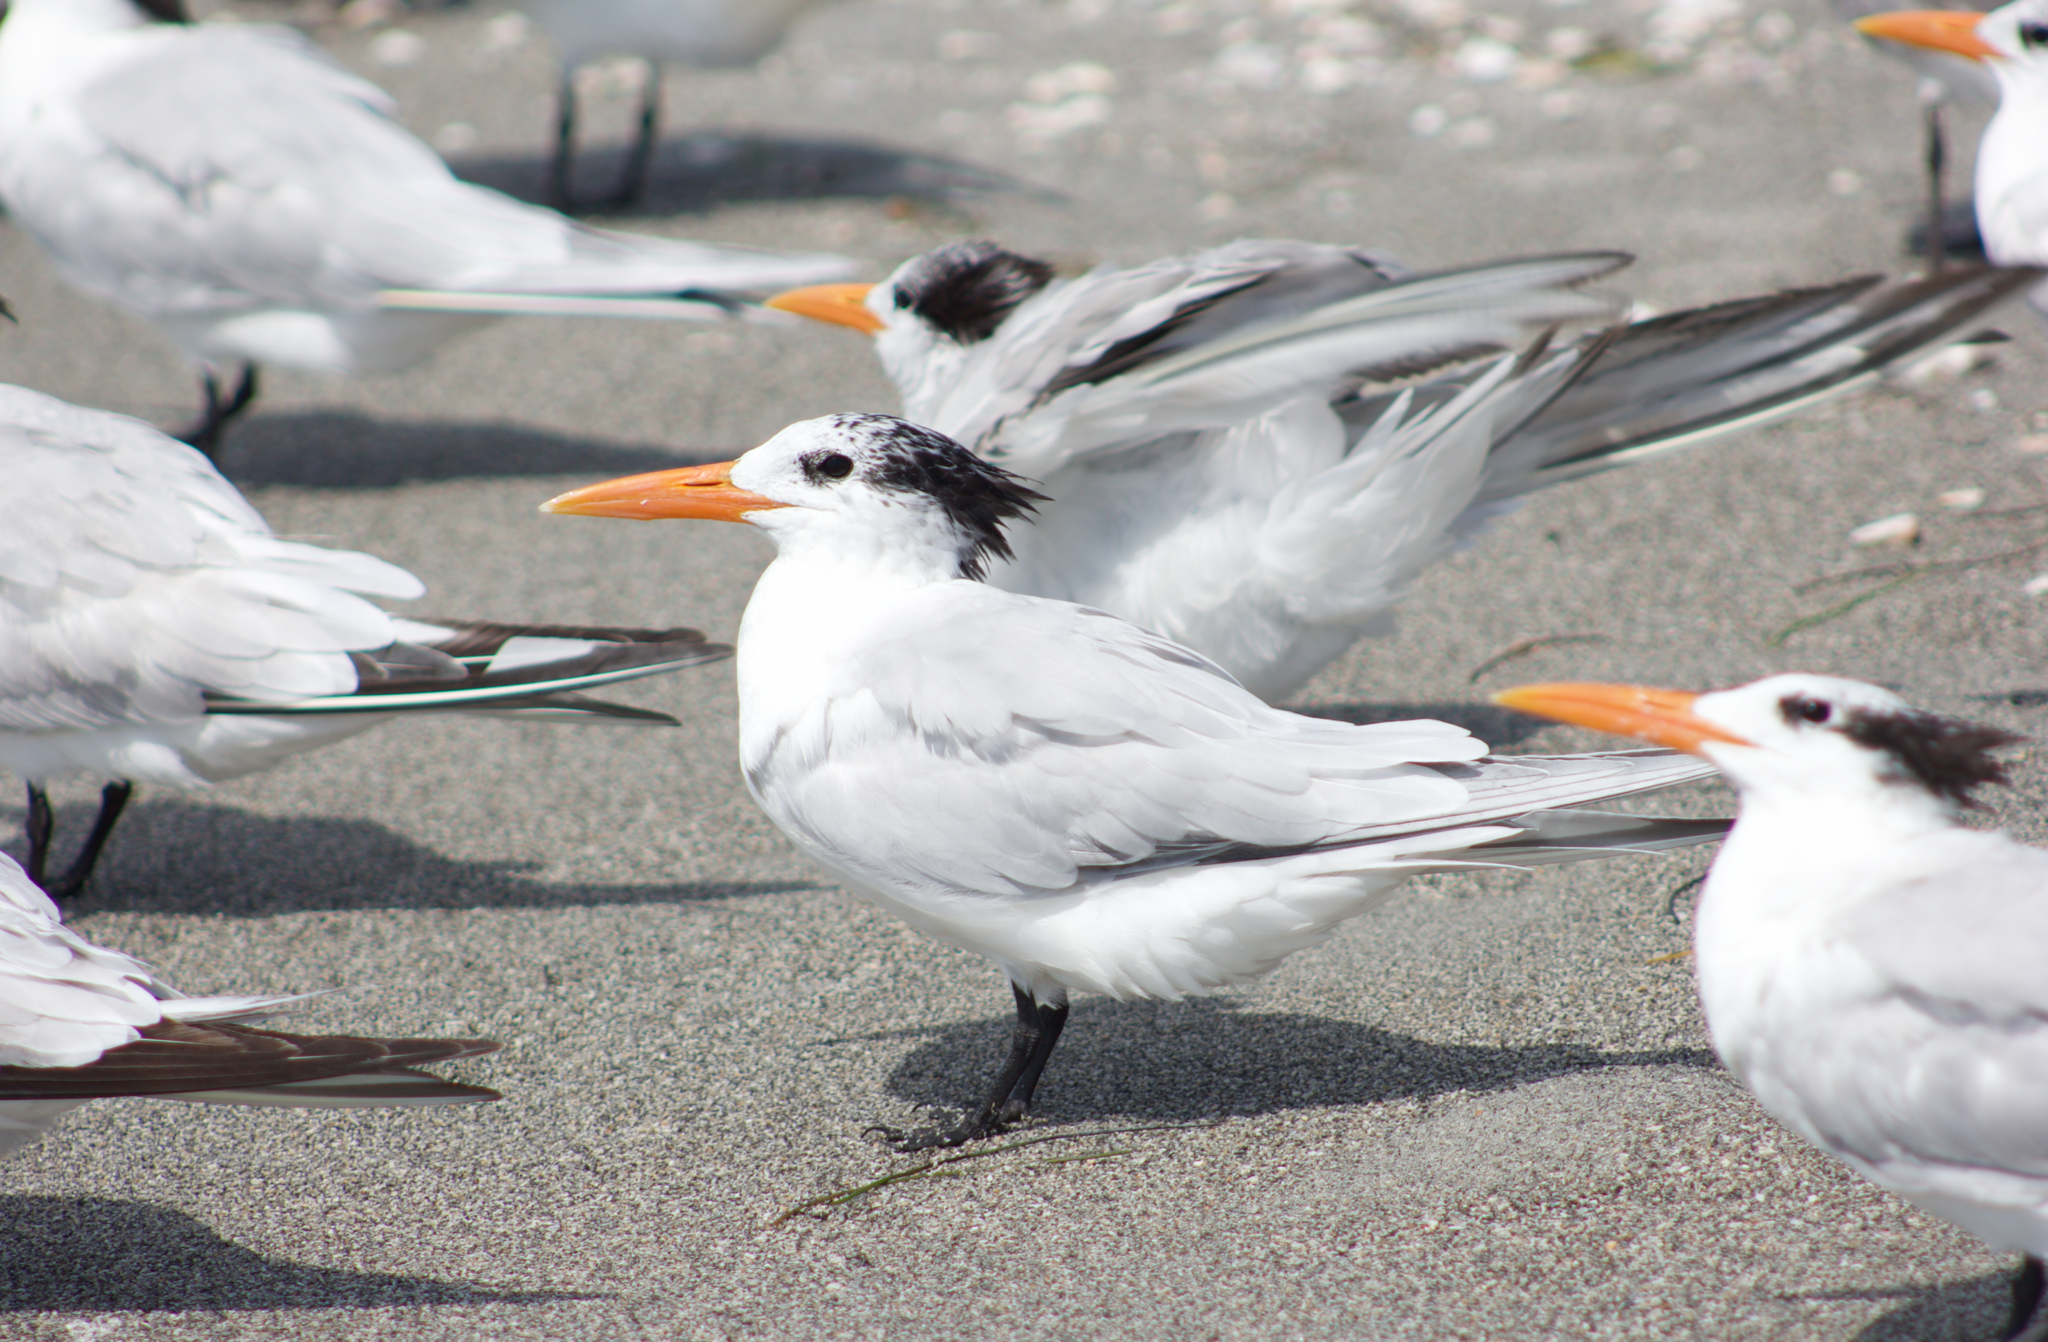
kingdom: Animalia
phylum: Chordata
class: Aves
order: Charadriiformes
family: Laridae
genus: Thalasseus
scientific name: Thalasseus maximus
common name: Royal tern
